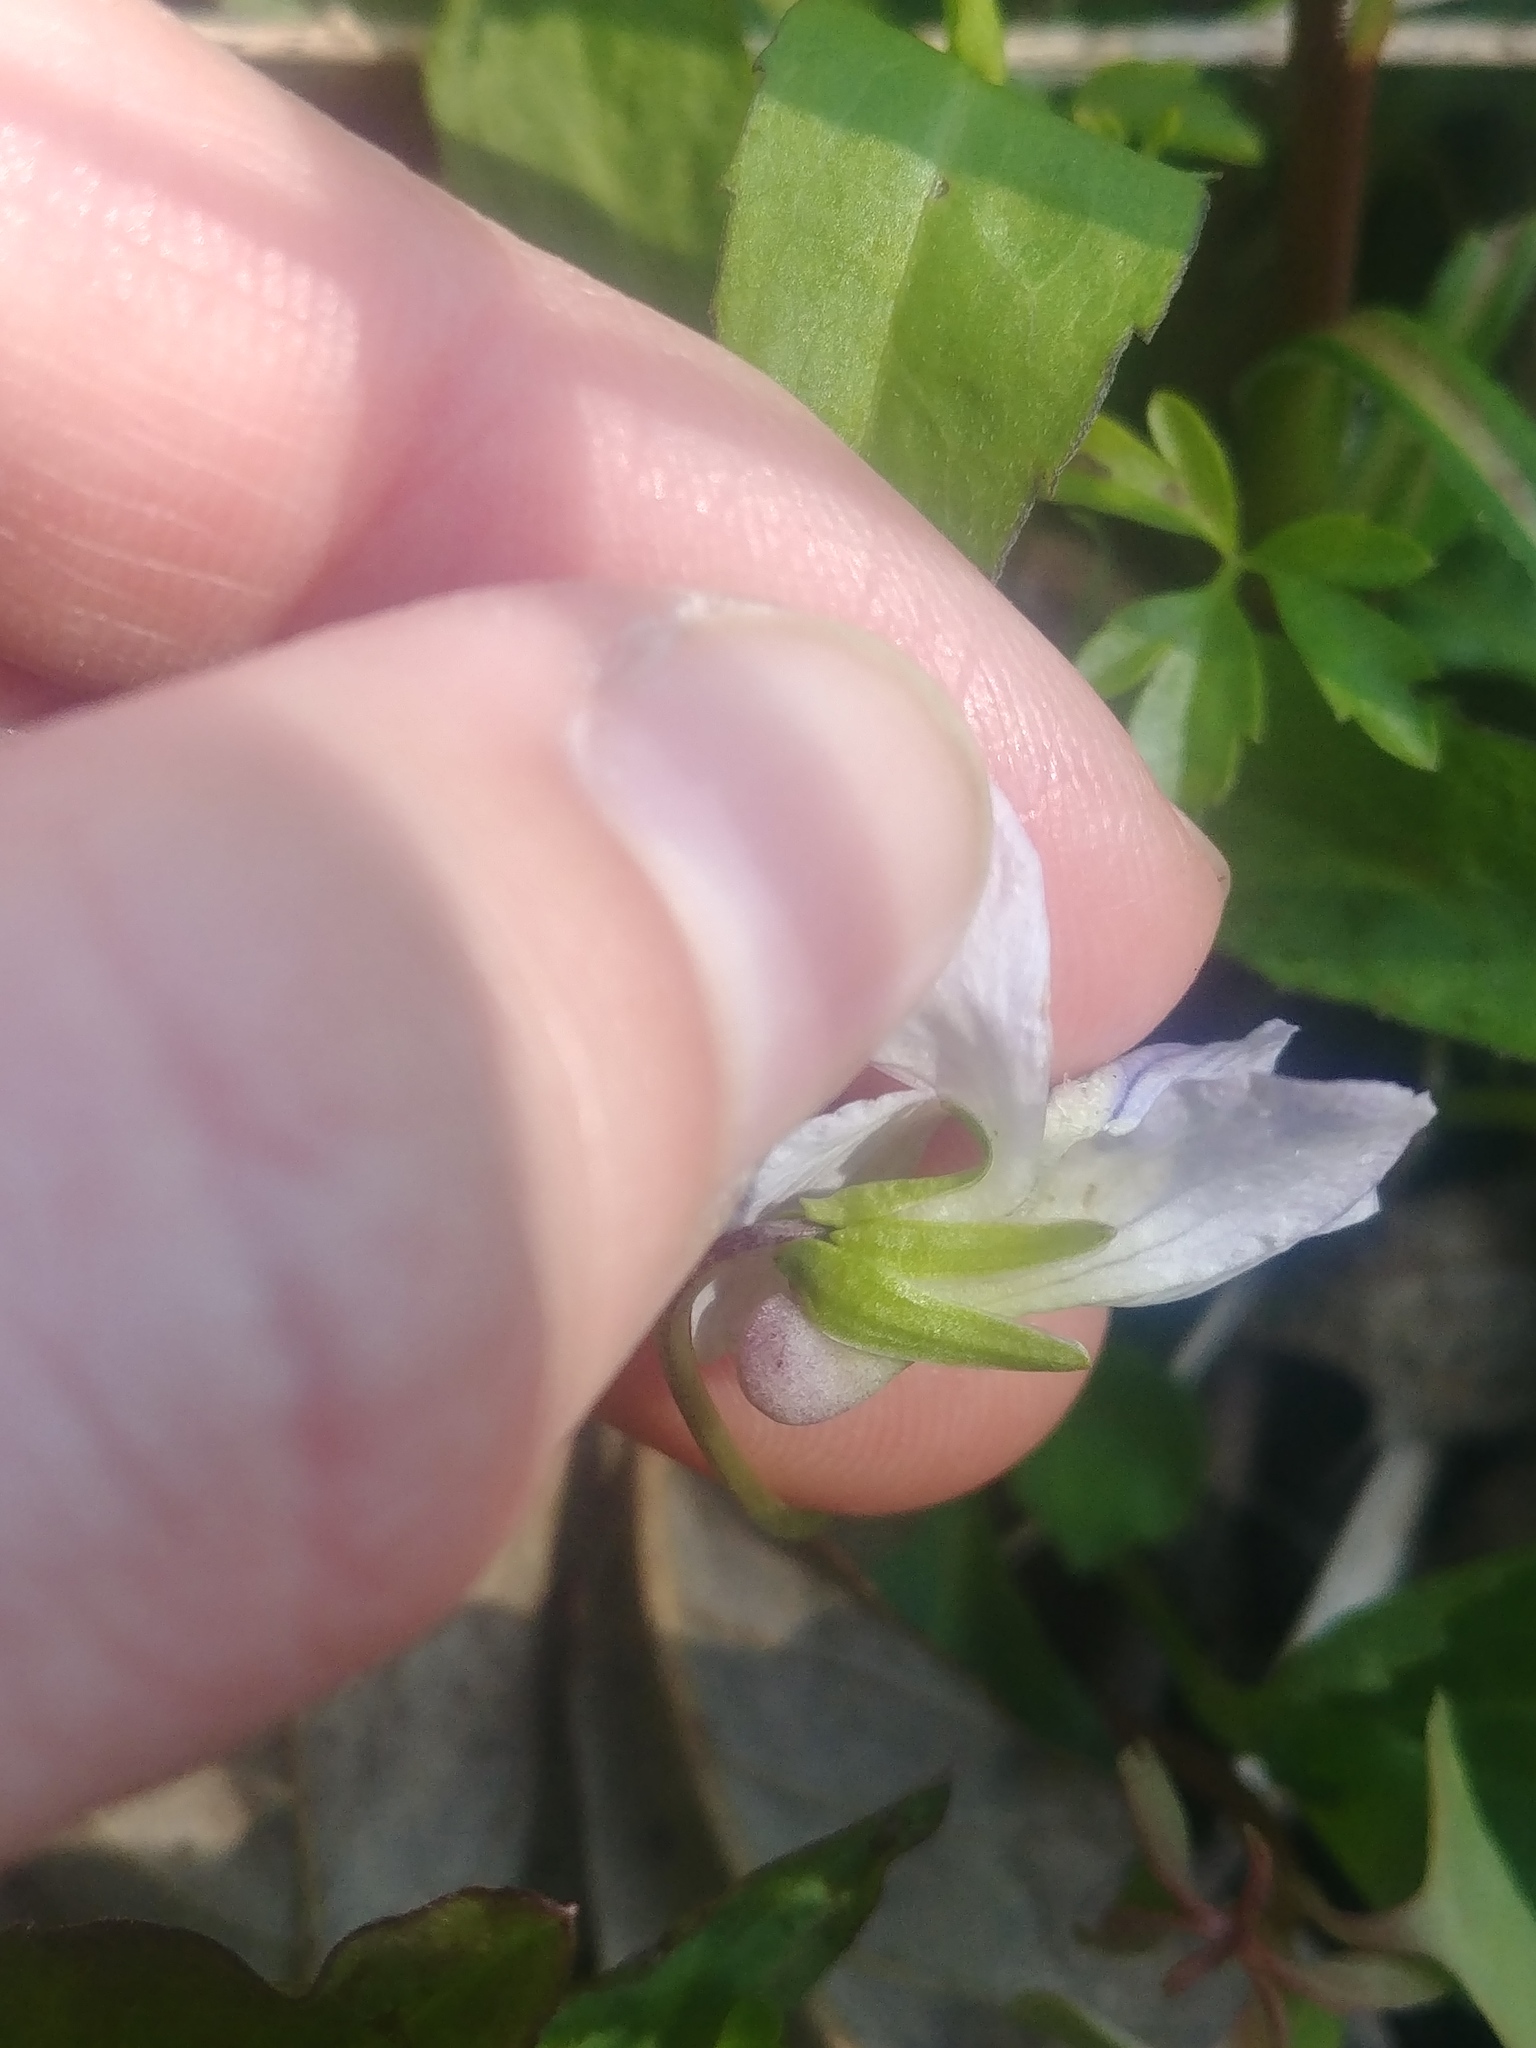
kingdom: Plantae
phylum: Tracheophyta
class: Magnoliopsida
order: Malpighiales
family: Violaceae
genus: Viola
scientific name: Viola cucullata
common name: Marsh blue violet
